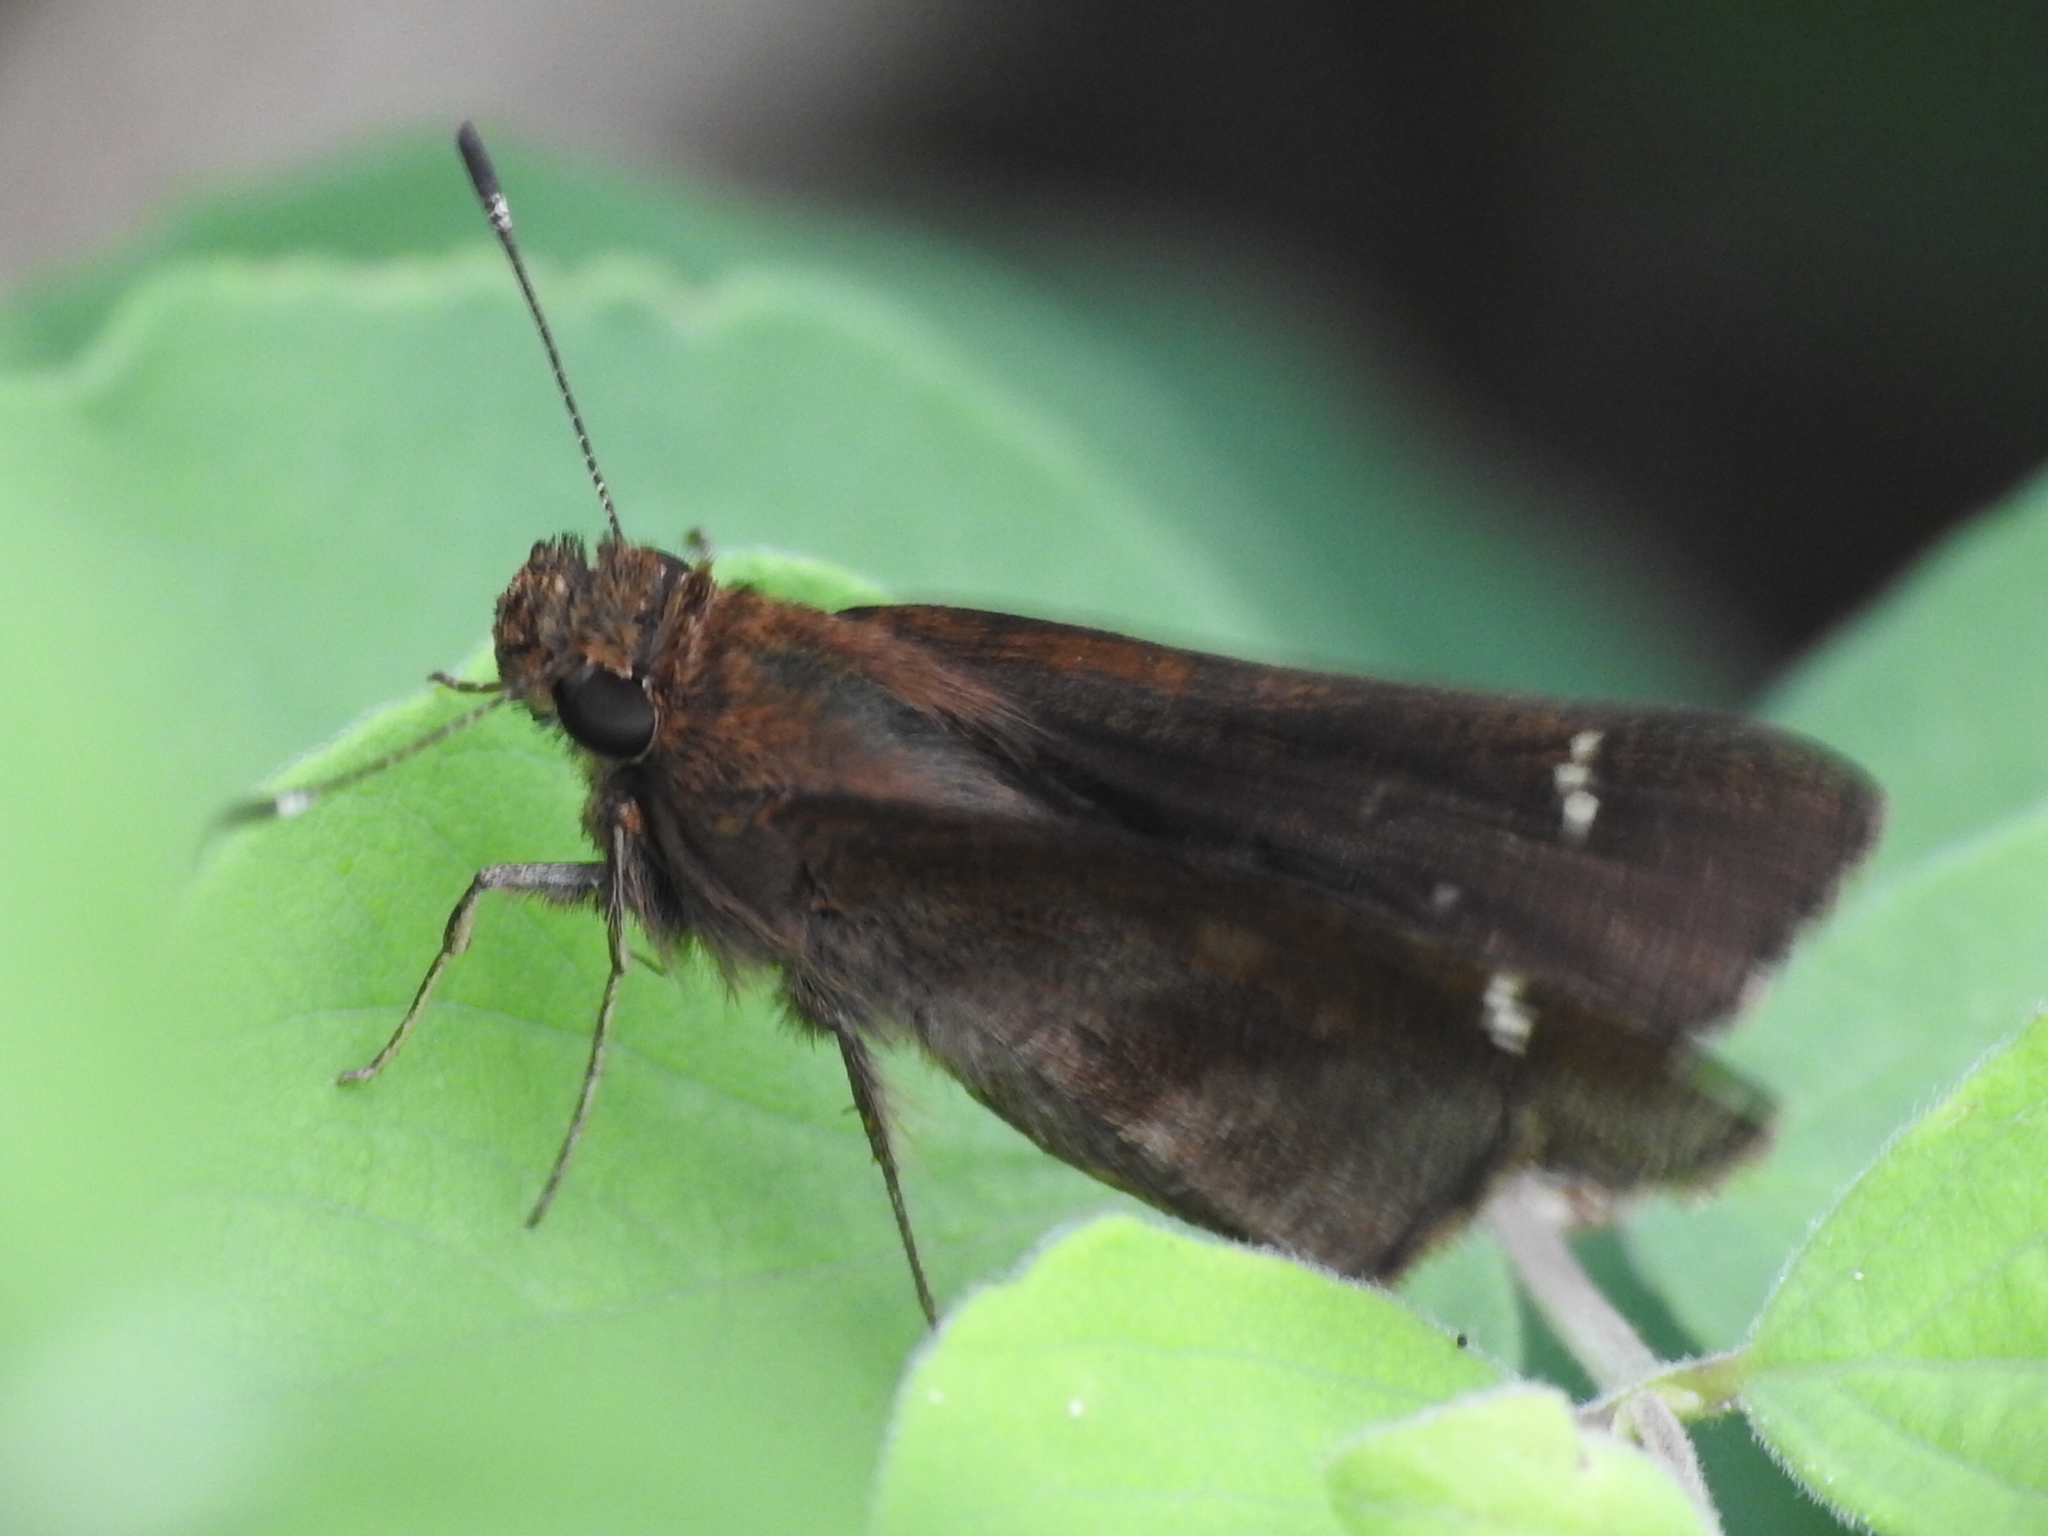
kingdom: Animalia
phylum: Arthropoda
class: Insecta
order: Lepidoptera
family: Hesperiidae
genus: Lerema
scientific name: Lerema accius
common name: Clouded skipper
